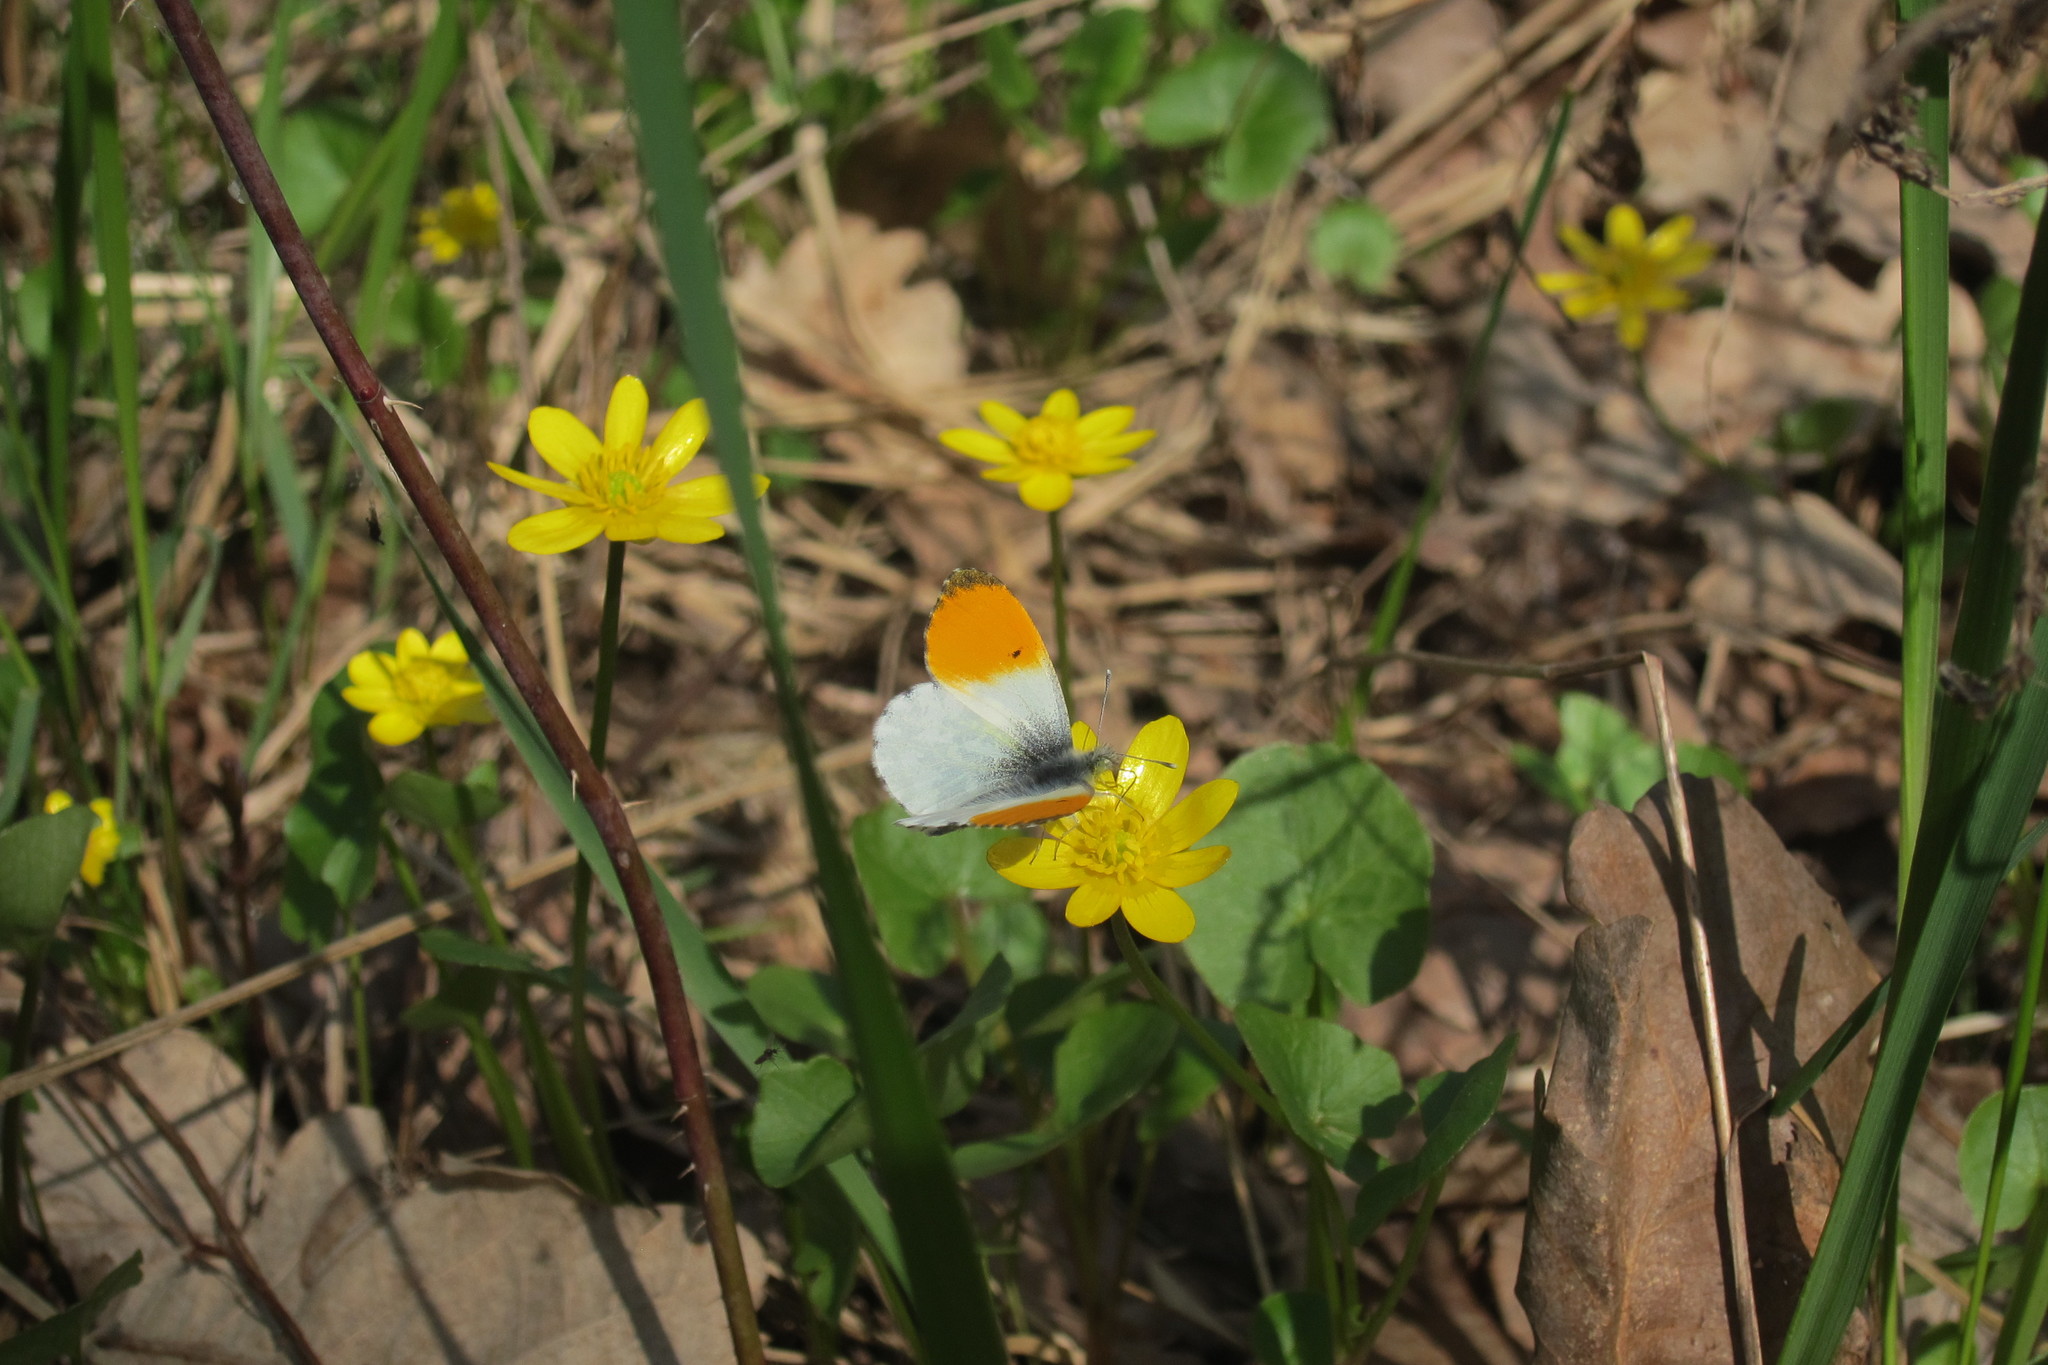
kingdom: Animalia
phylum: Arthropoda
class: Insecta
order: Lepidoptera
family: Pieridae
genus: Anthocharis
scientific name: Anthocharis cardamines
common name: Orange-tip
